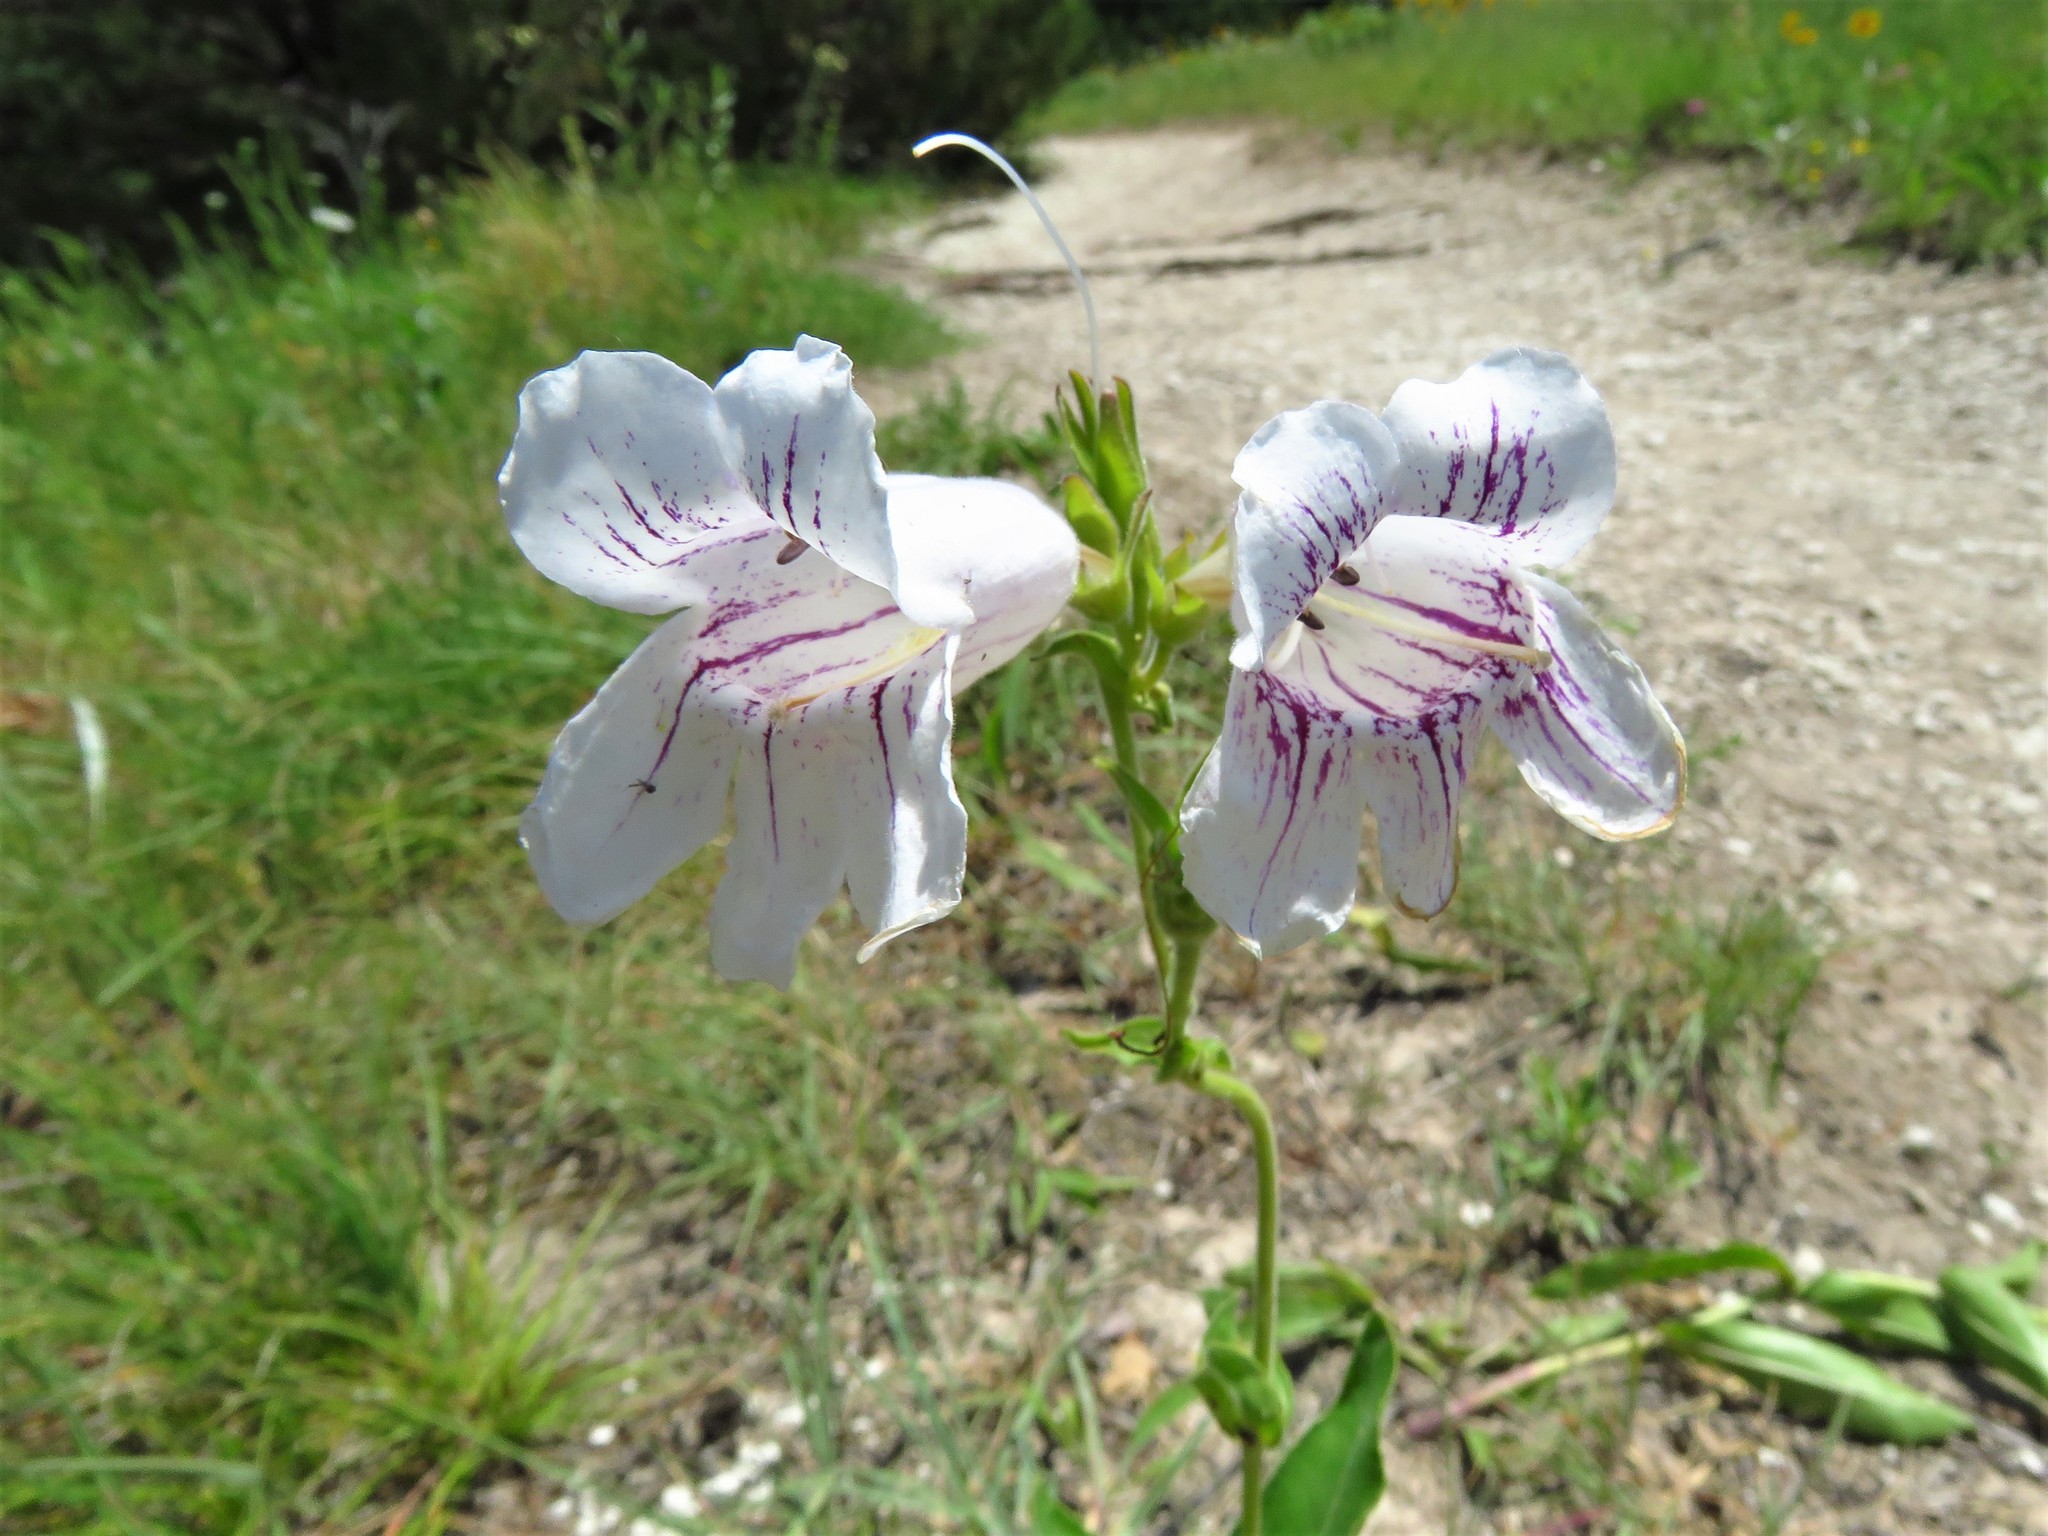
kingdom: Plantae
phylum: Tracheophyta
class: Magnoliopsida
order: Lamiales
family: Plantaginaceae
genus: Penstemon
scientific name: Penstemon cobaea
